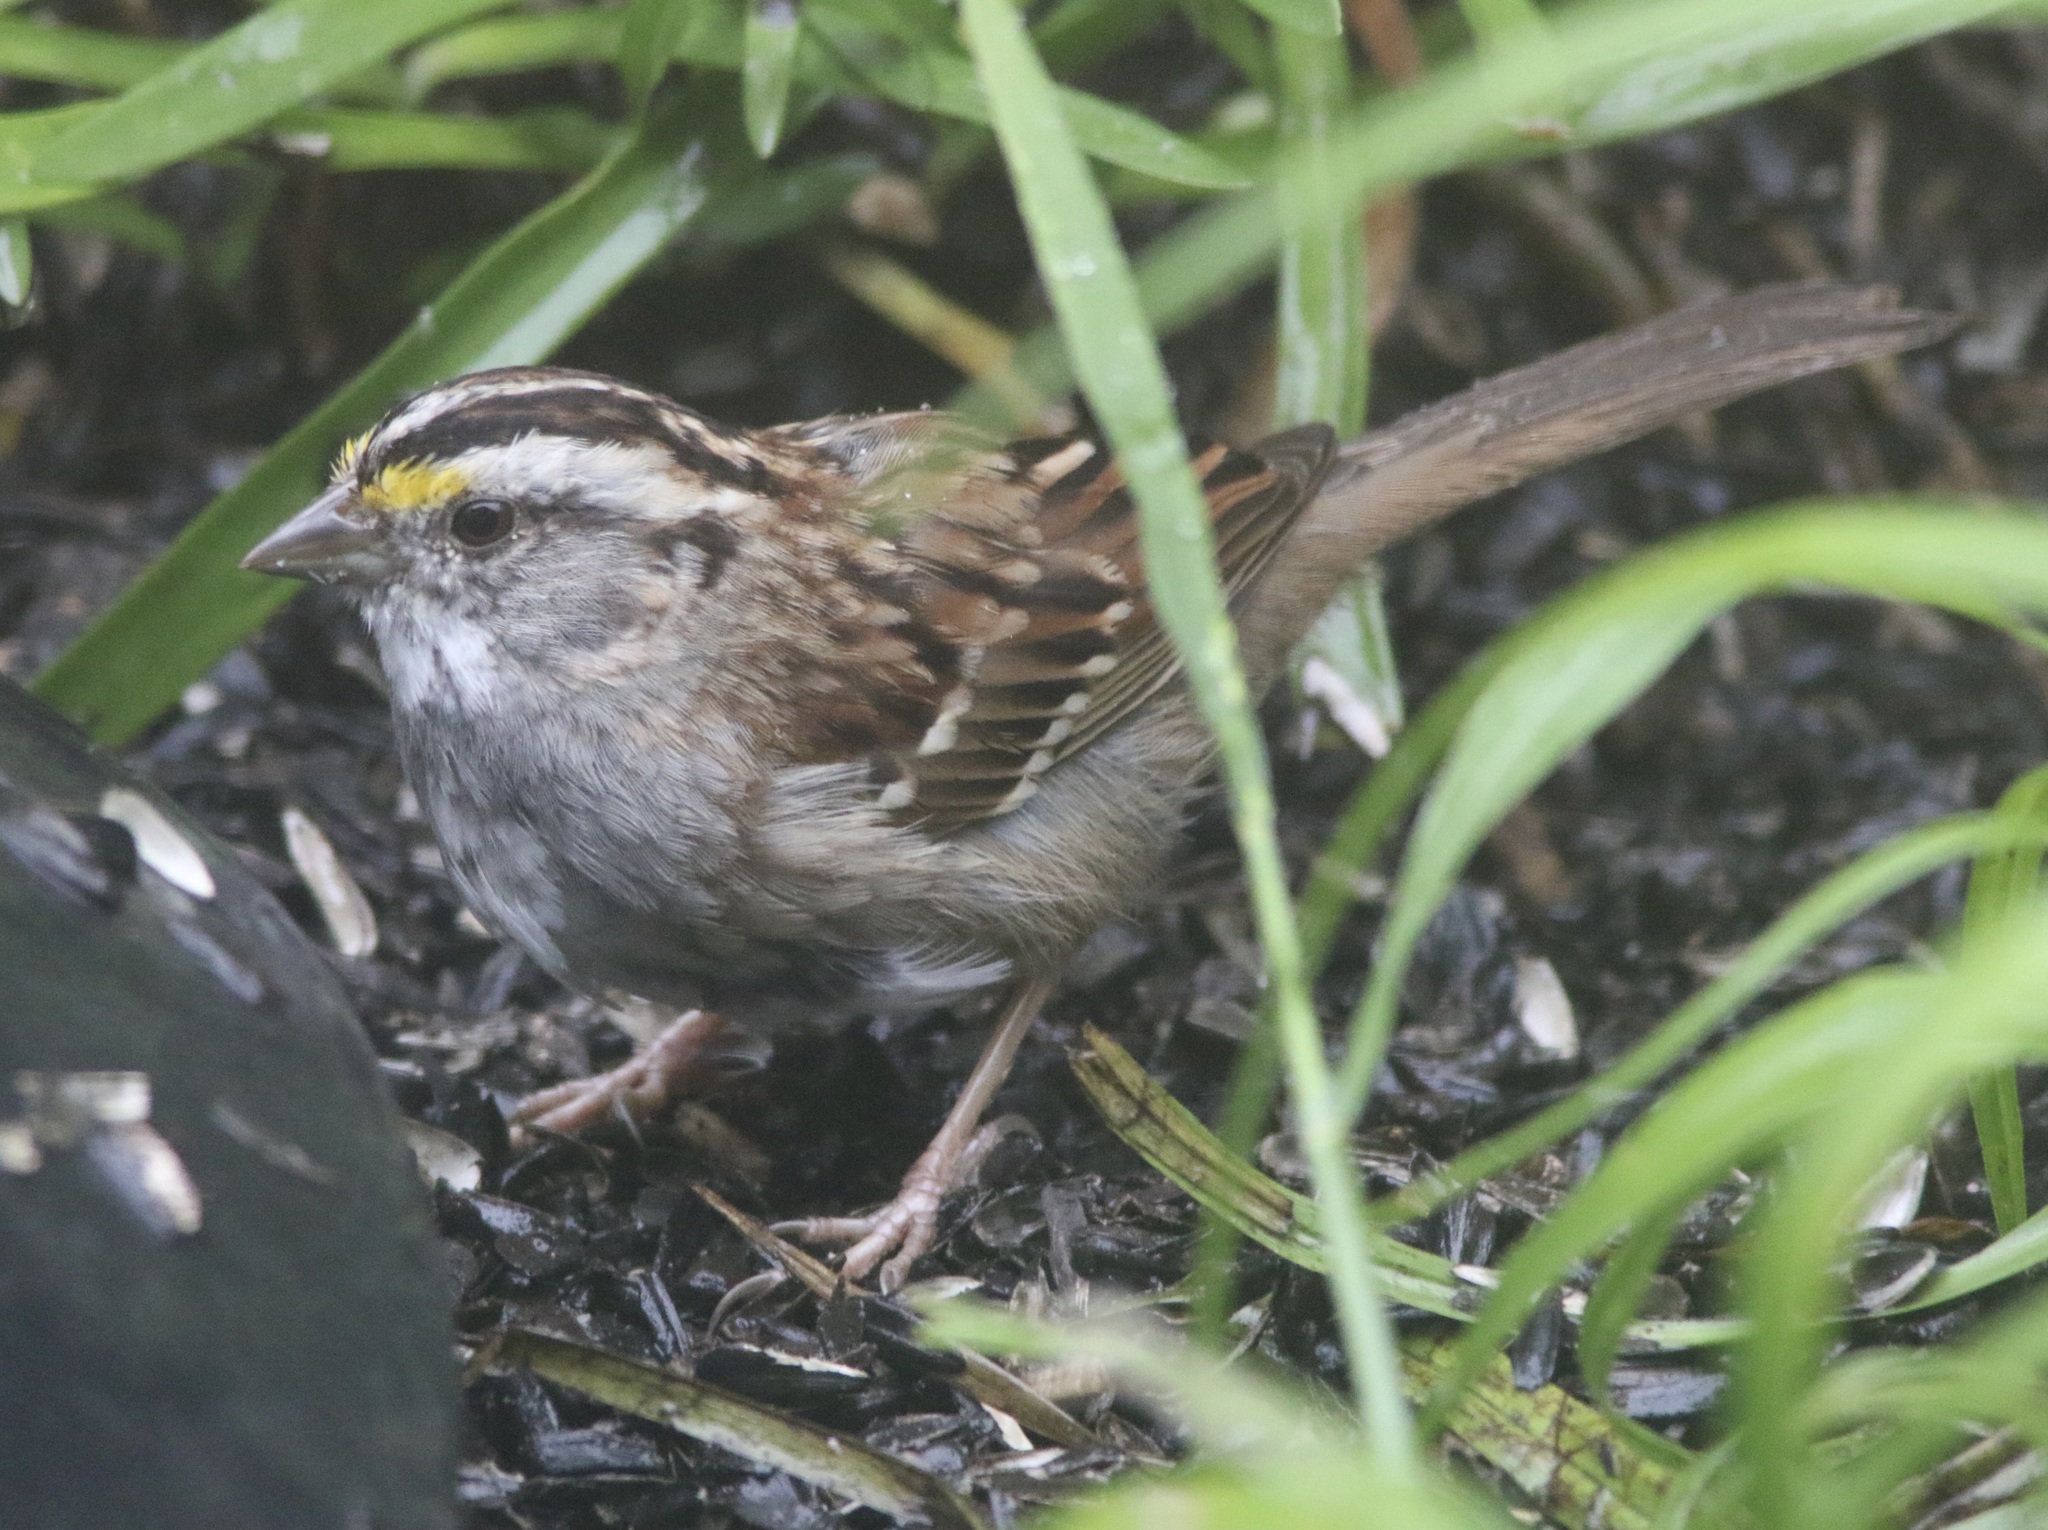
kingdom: Animalia
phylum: Chordata
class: Aves
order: Passeriformes
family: Passerellidae
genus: Zonotrichia
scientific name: Zonotrichia albicollis
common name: White-throated sparrow
